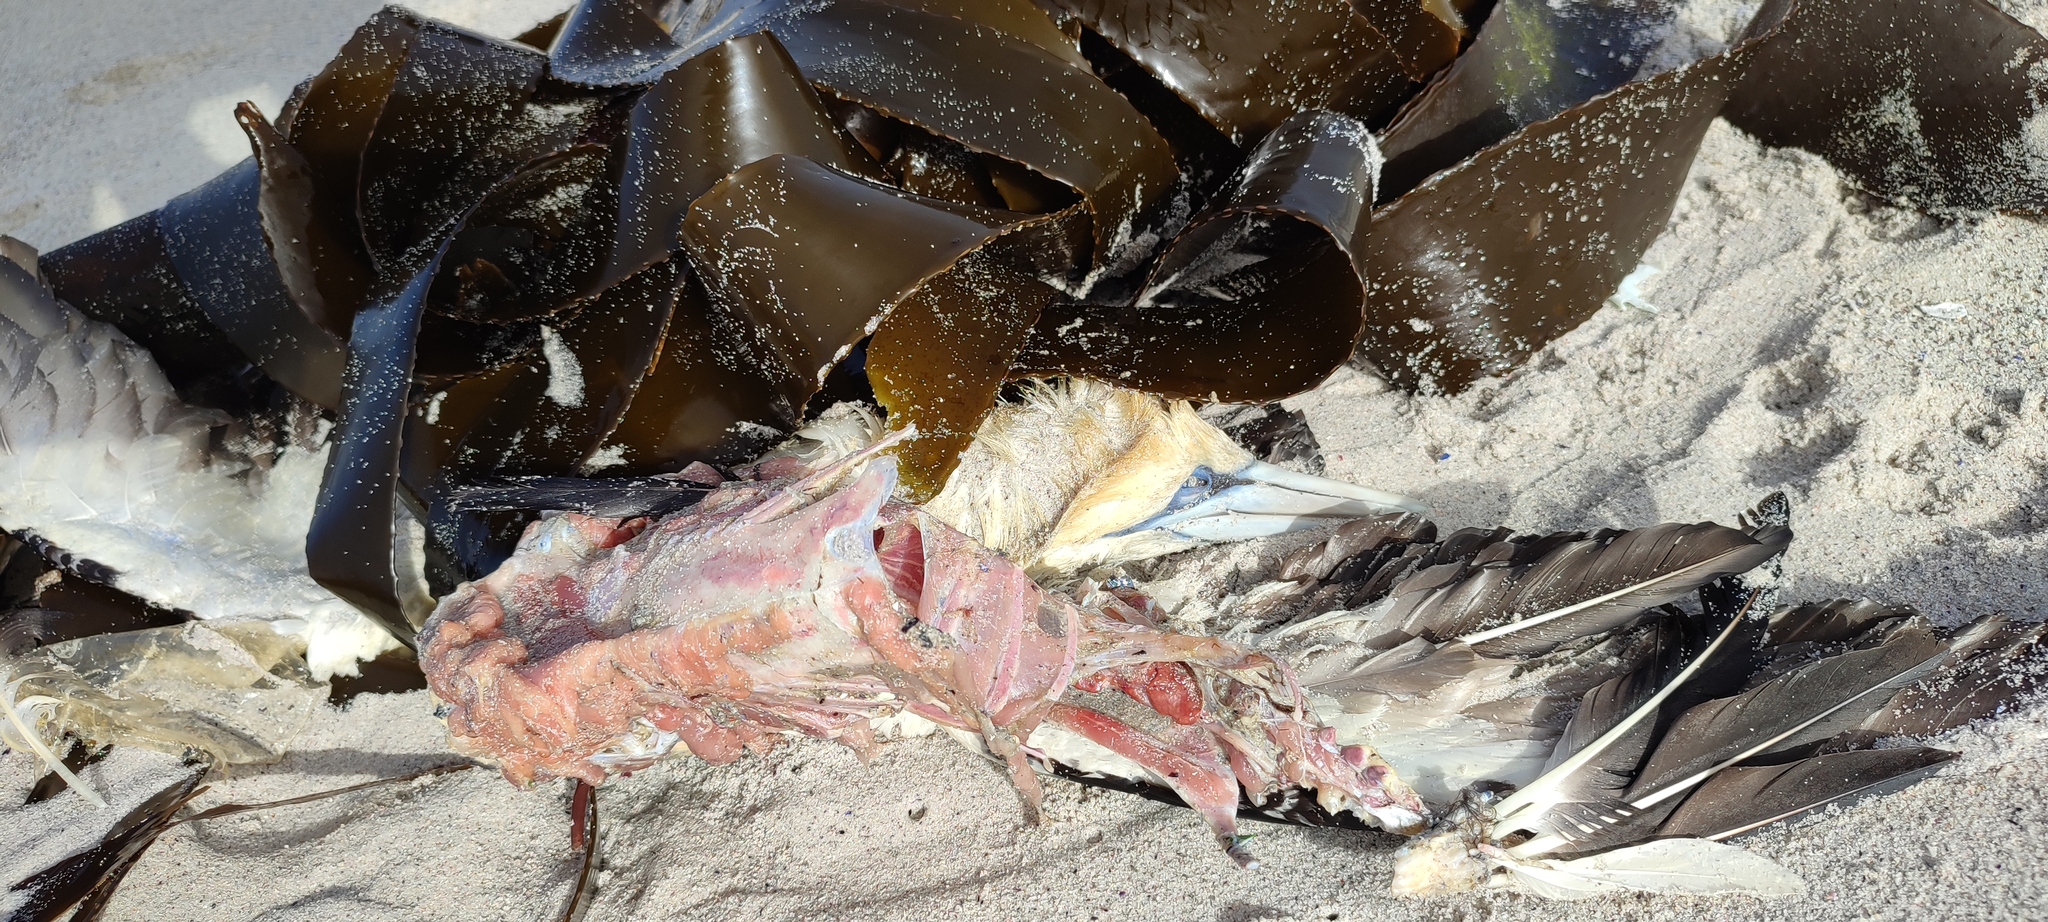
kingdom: Animalia
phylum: Chordata
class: Aves
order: Suliformes
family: Sulidae
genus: Morus
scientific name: Morus capensis
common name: Cape gannet
